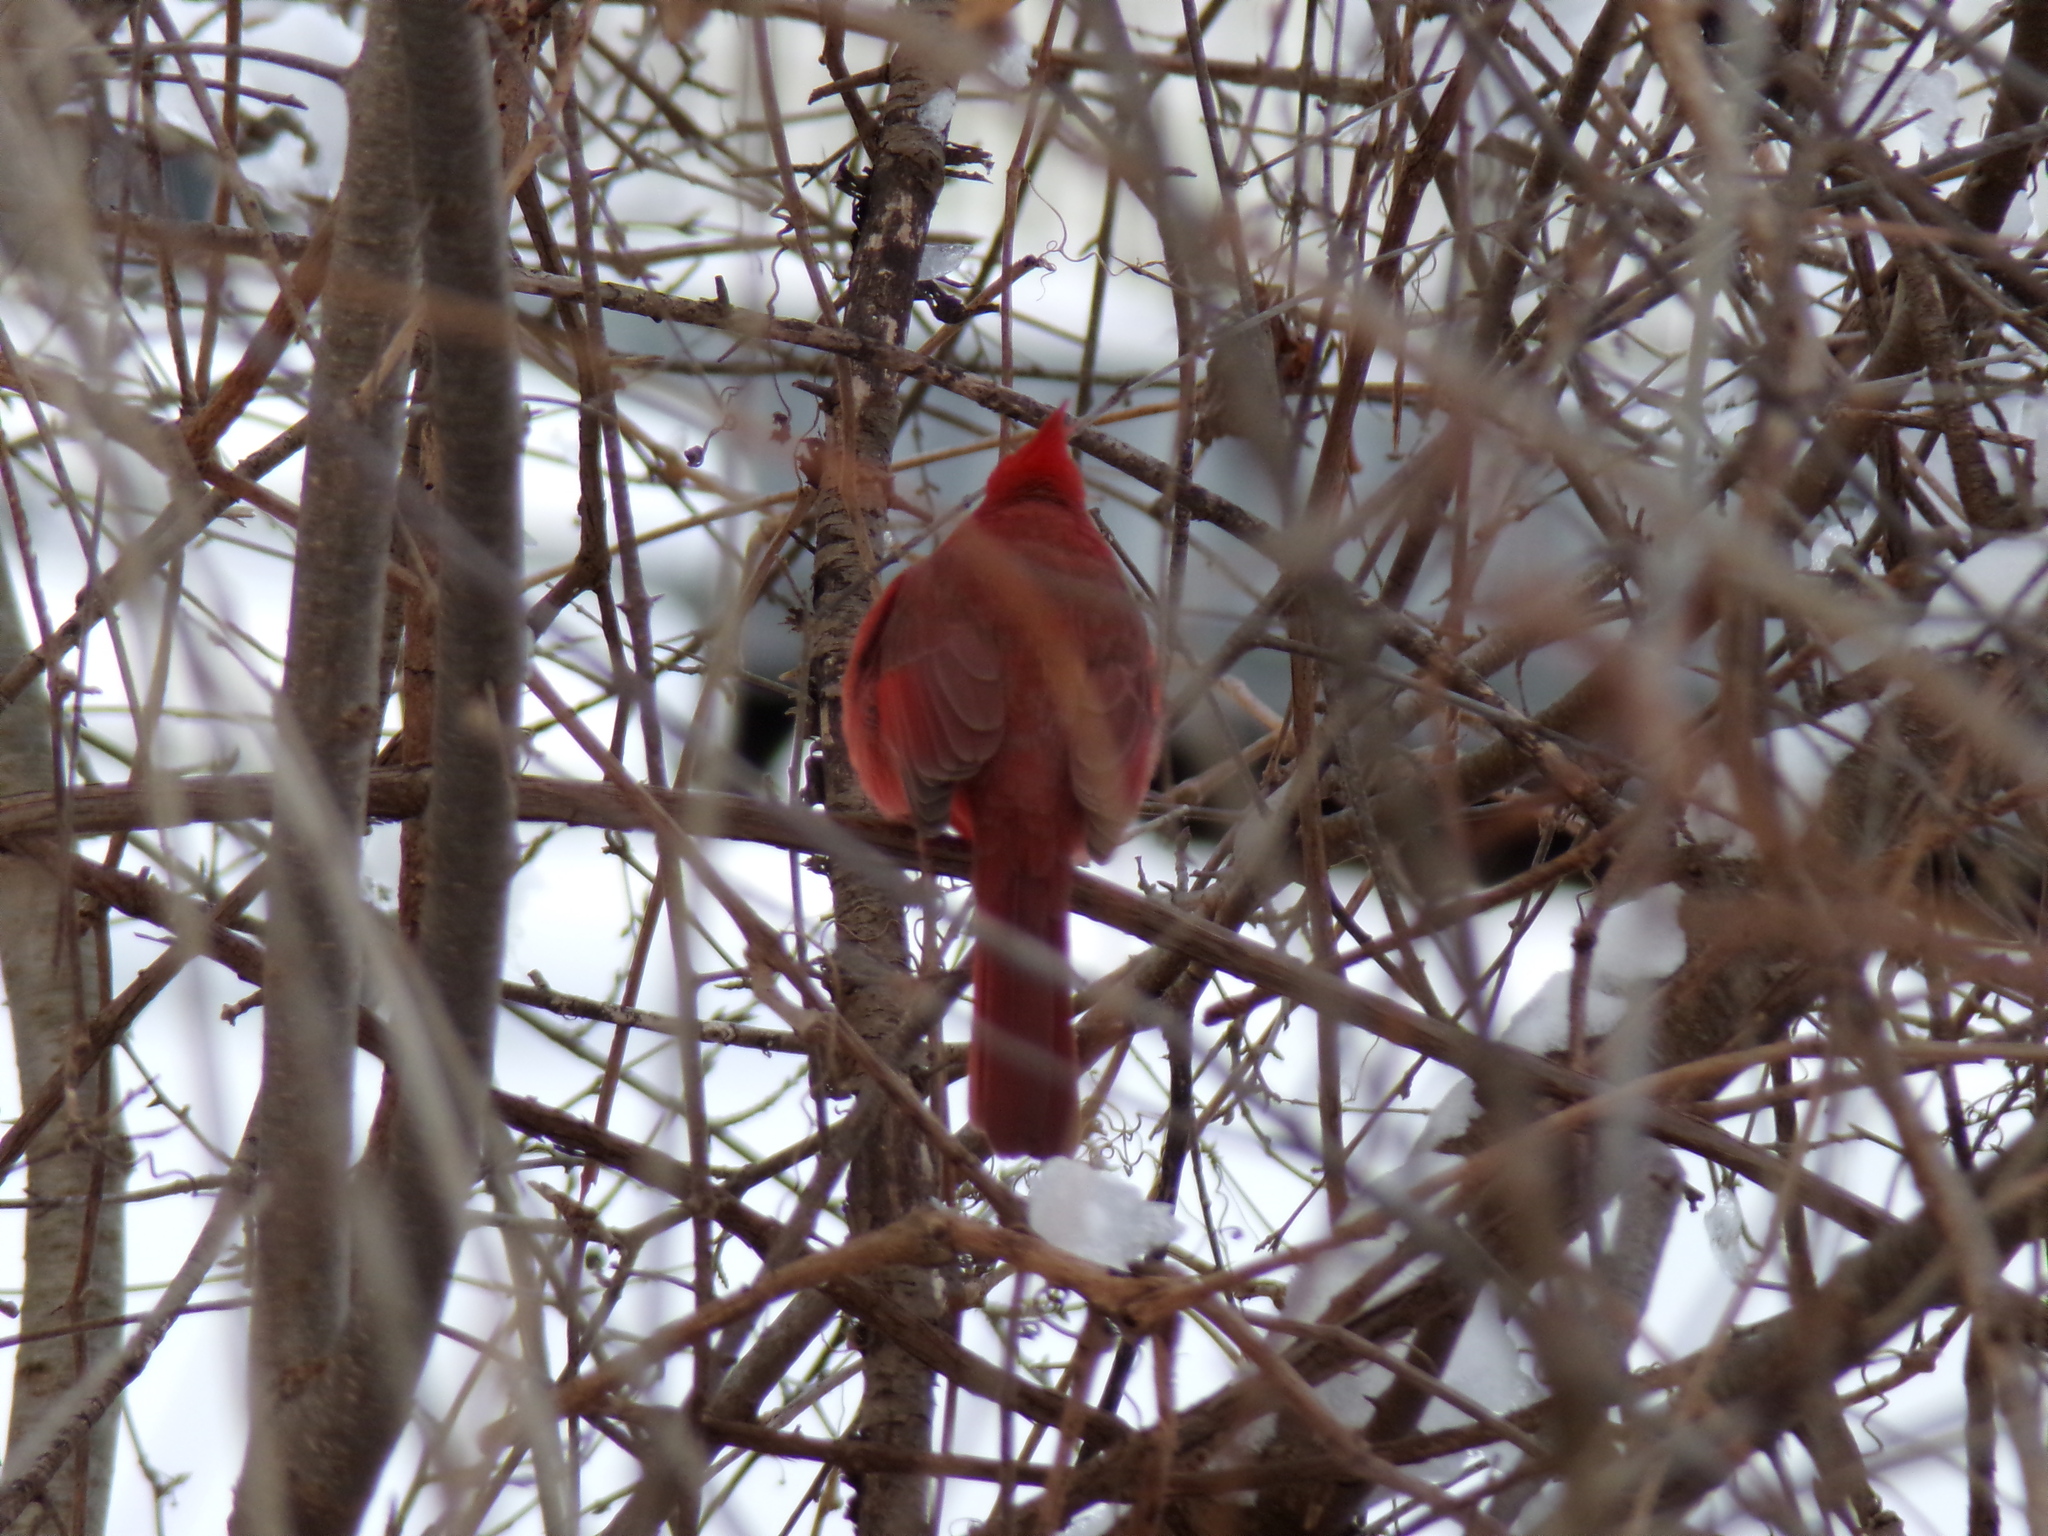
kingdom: Animalia
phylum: Chordata
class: Aves
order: Passeriformes
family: Cardinalidae
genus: Cardinalis
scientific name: Cardinalis cardinalis
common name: Northern cardinal
